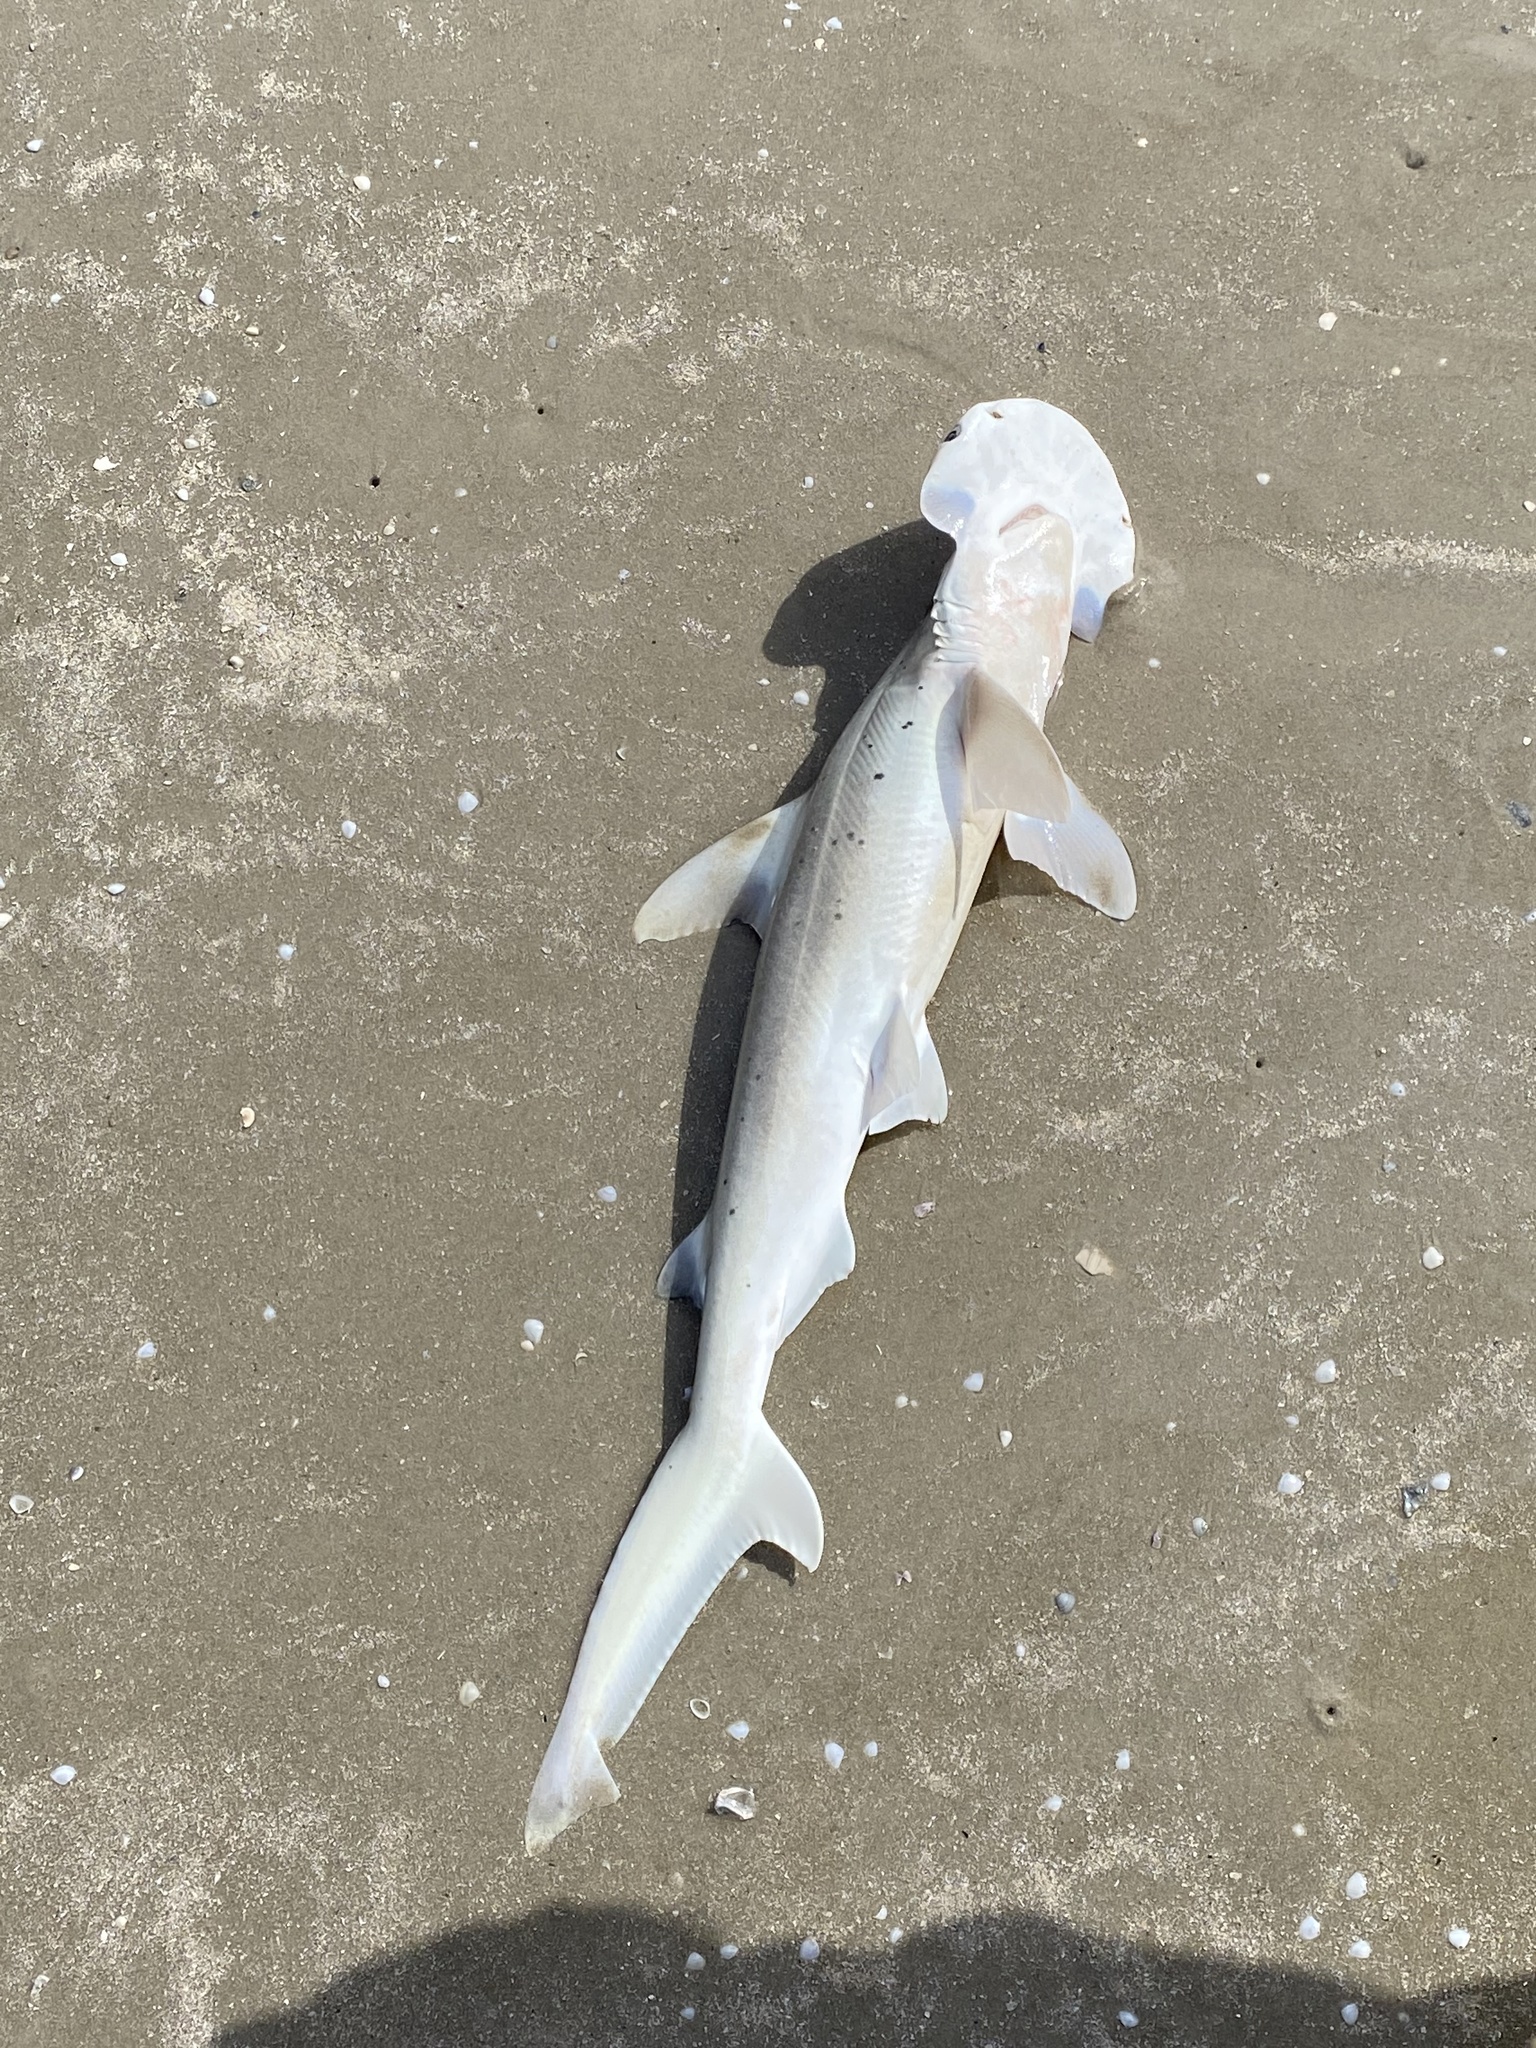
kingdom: Animalia
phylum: Chordata
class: Elasmobranchii
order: Carcharhiniformes
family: Sphyrnidae
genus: Sphyrna
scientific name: Sphyrna tiburo
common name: Bonnethead
